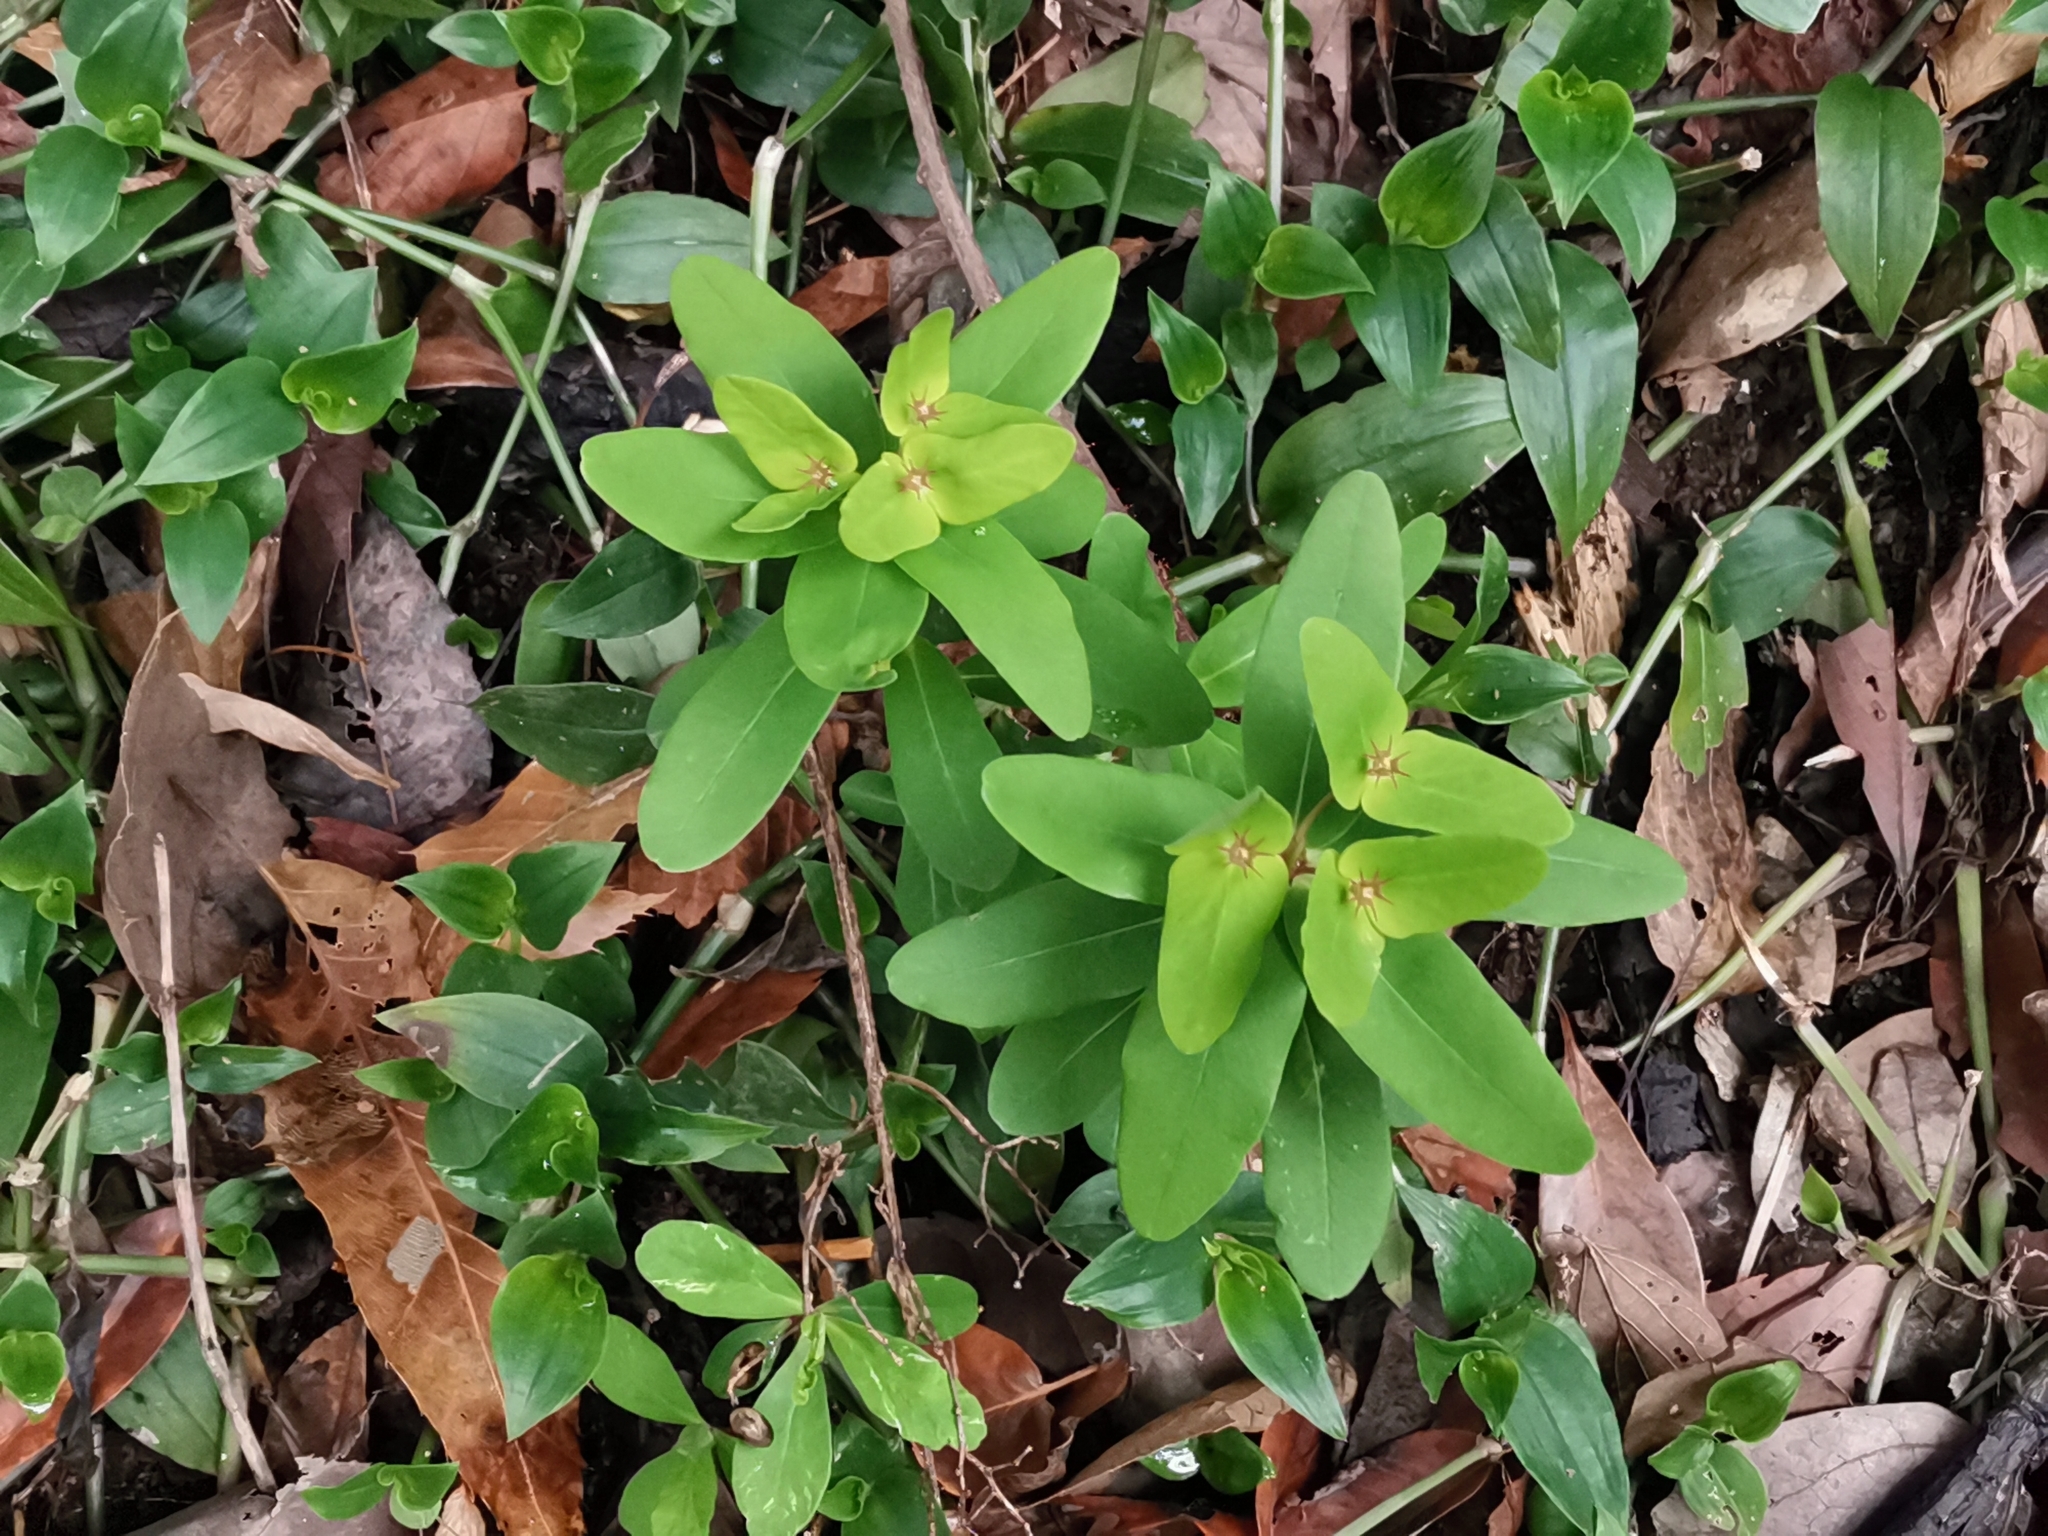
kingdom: Plantae
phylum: Tracheophyta
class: Magnoliopsida
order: Malpighiales
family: Euphorbiaceae
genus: Euphorbia
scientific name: Euphorbia sieboldiana
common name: Siebold's spurge
